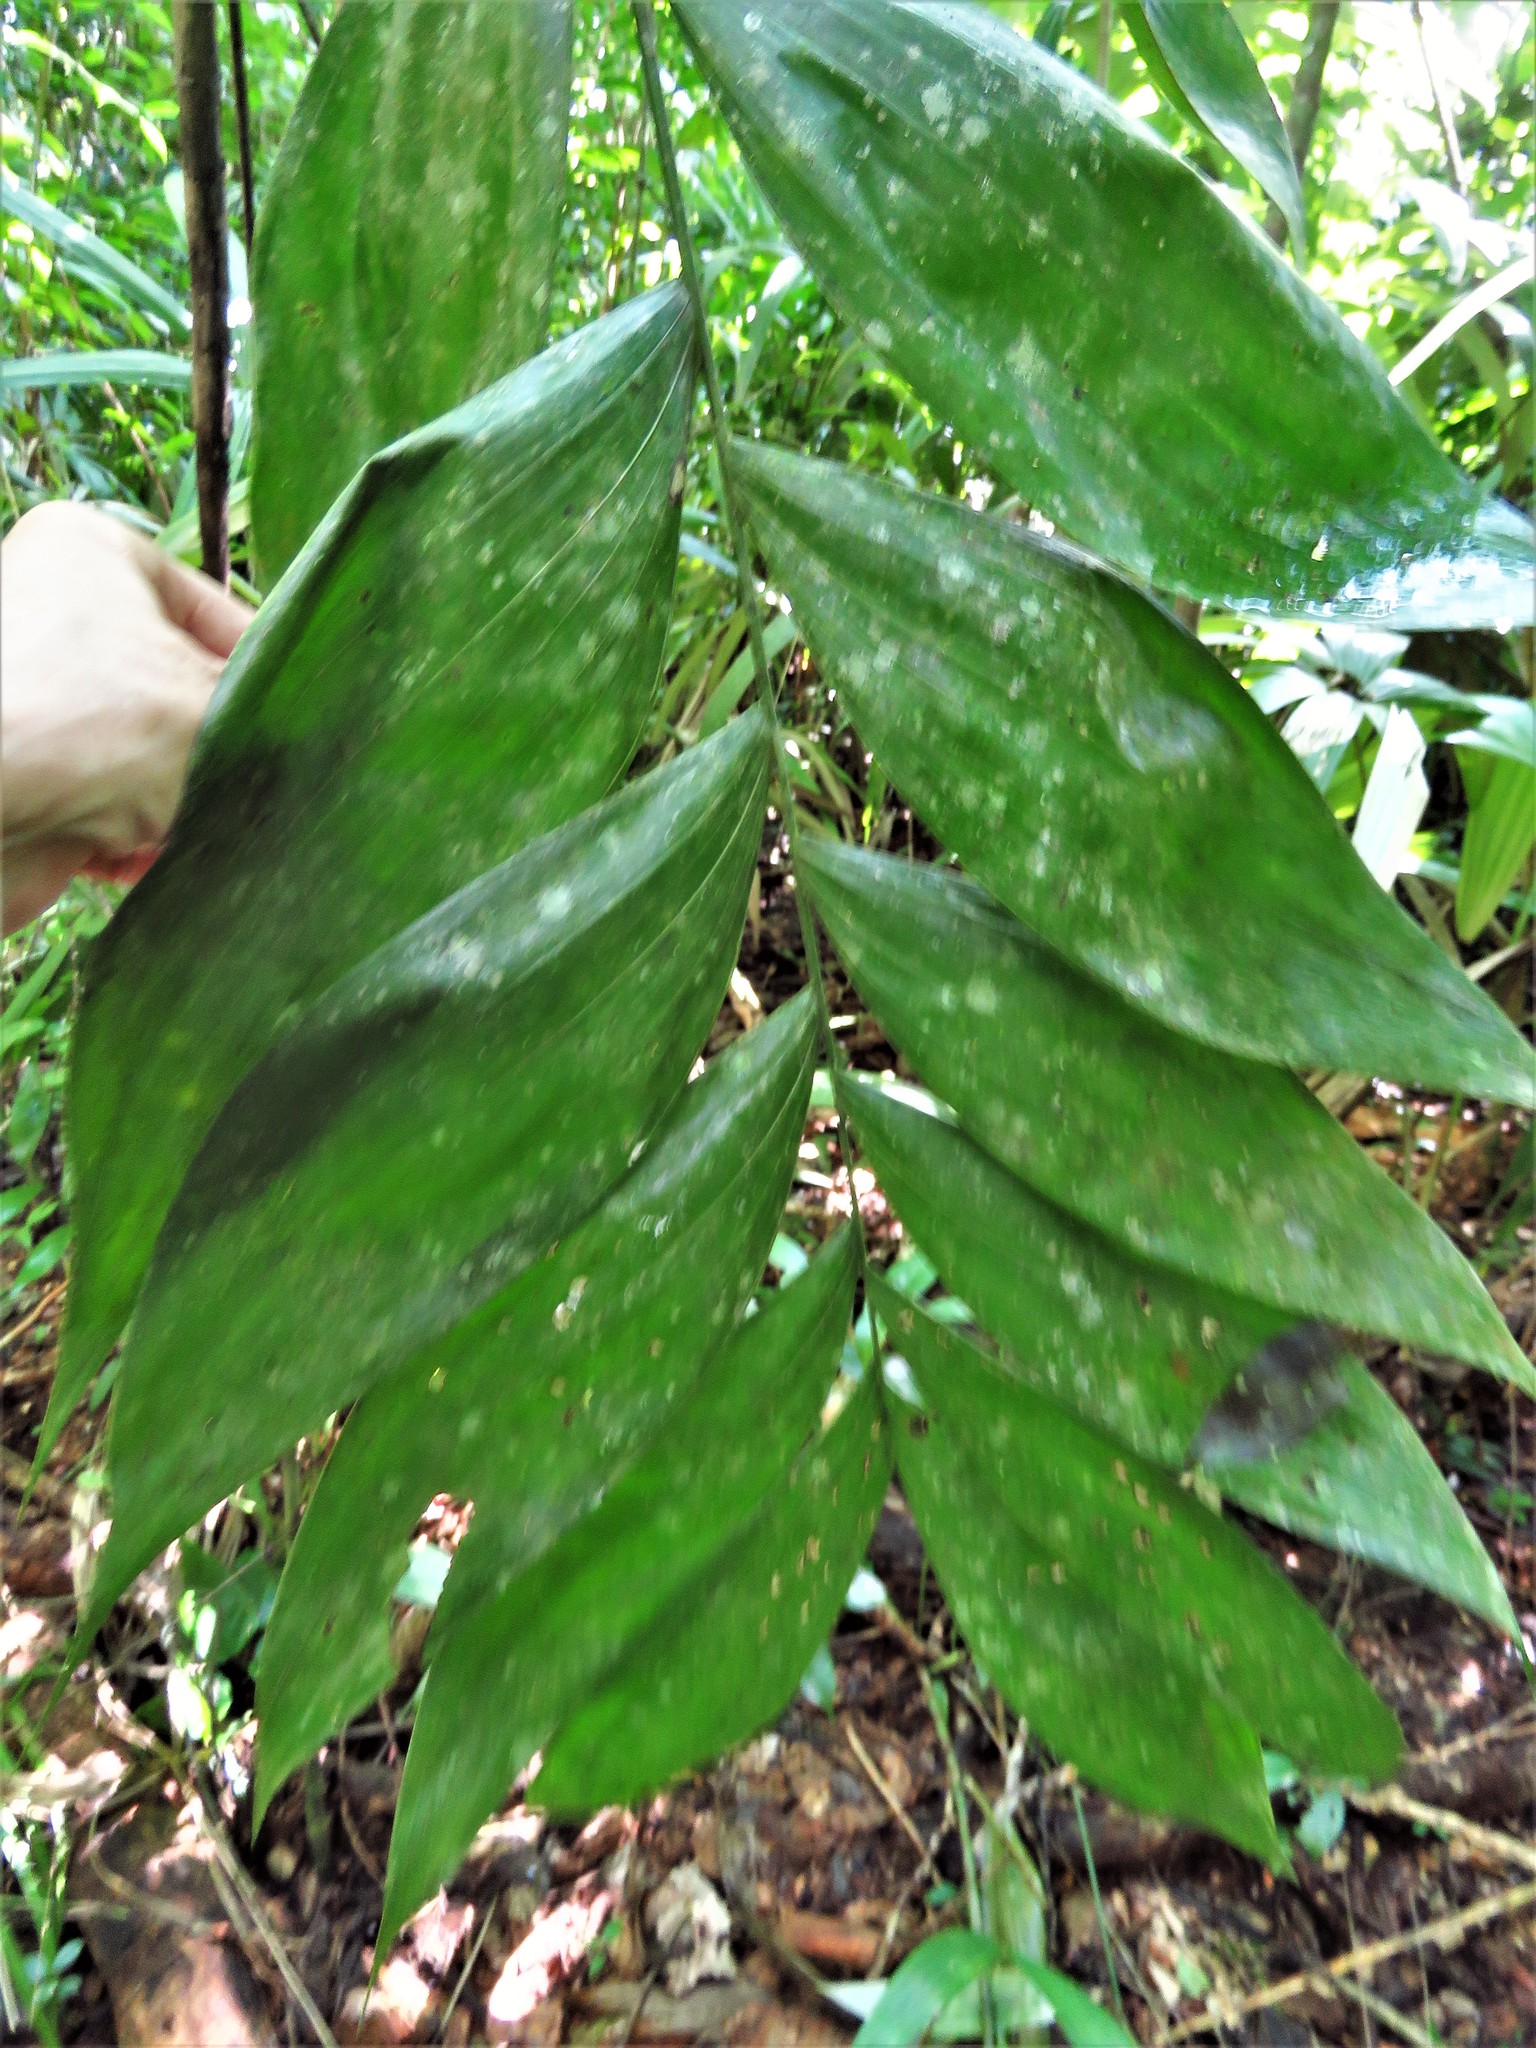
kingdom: Plantae
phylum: Tracheophyta
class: Liliopsida
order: Arecales
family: Arecaceae
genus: Chamaedorea
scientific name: Chamaedorea tepejilote
